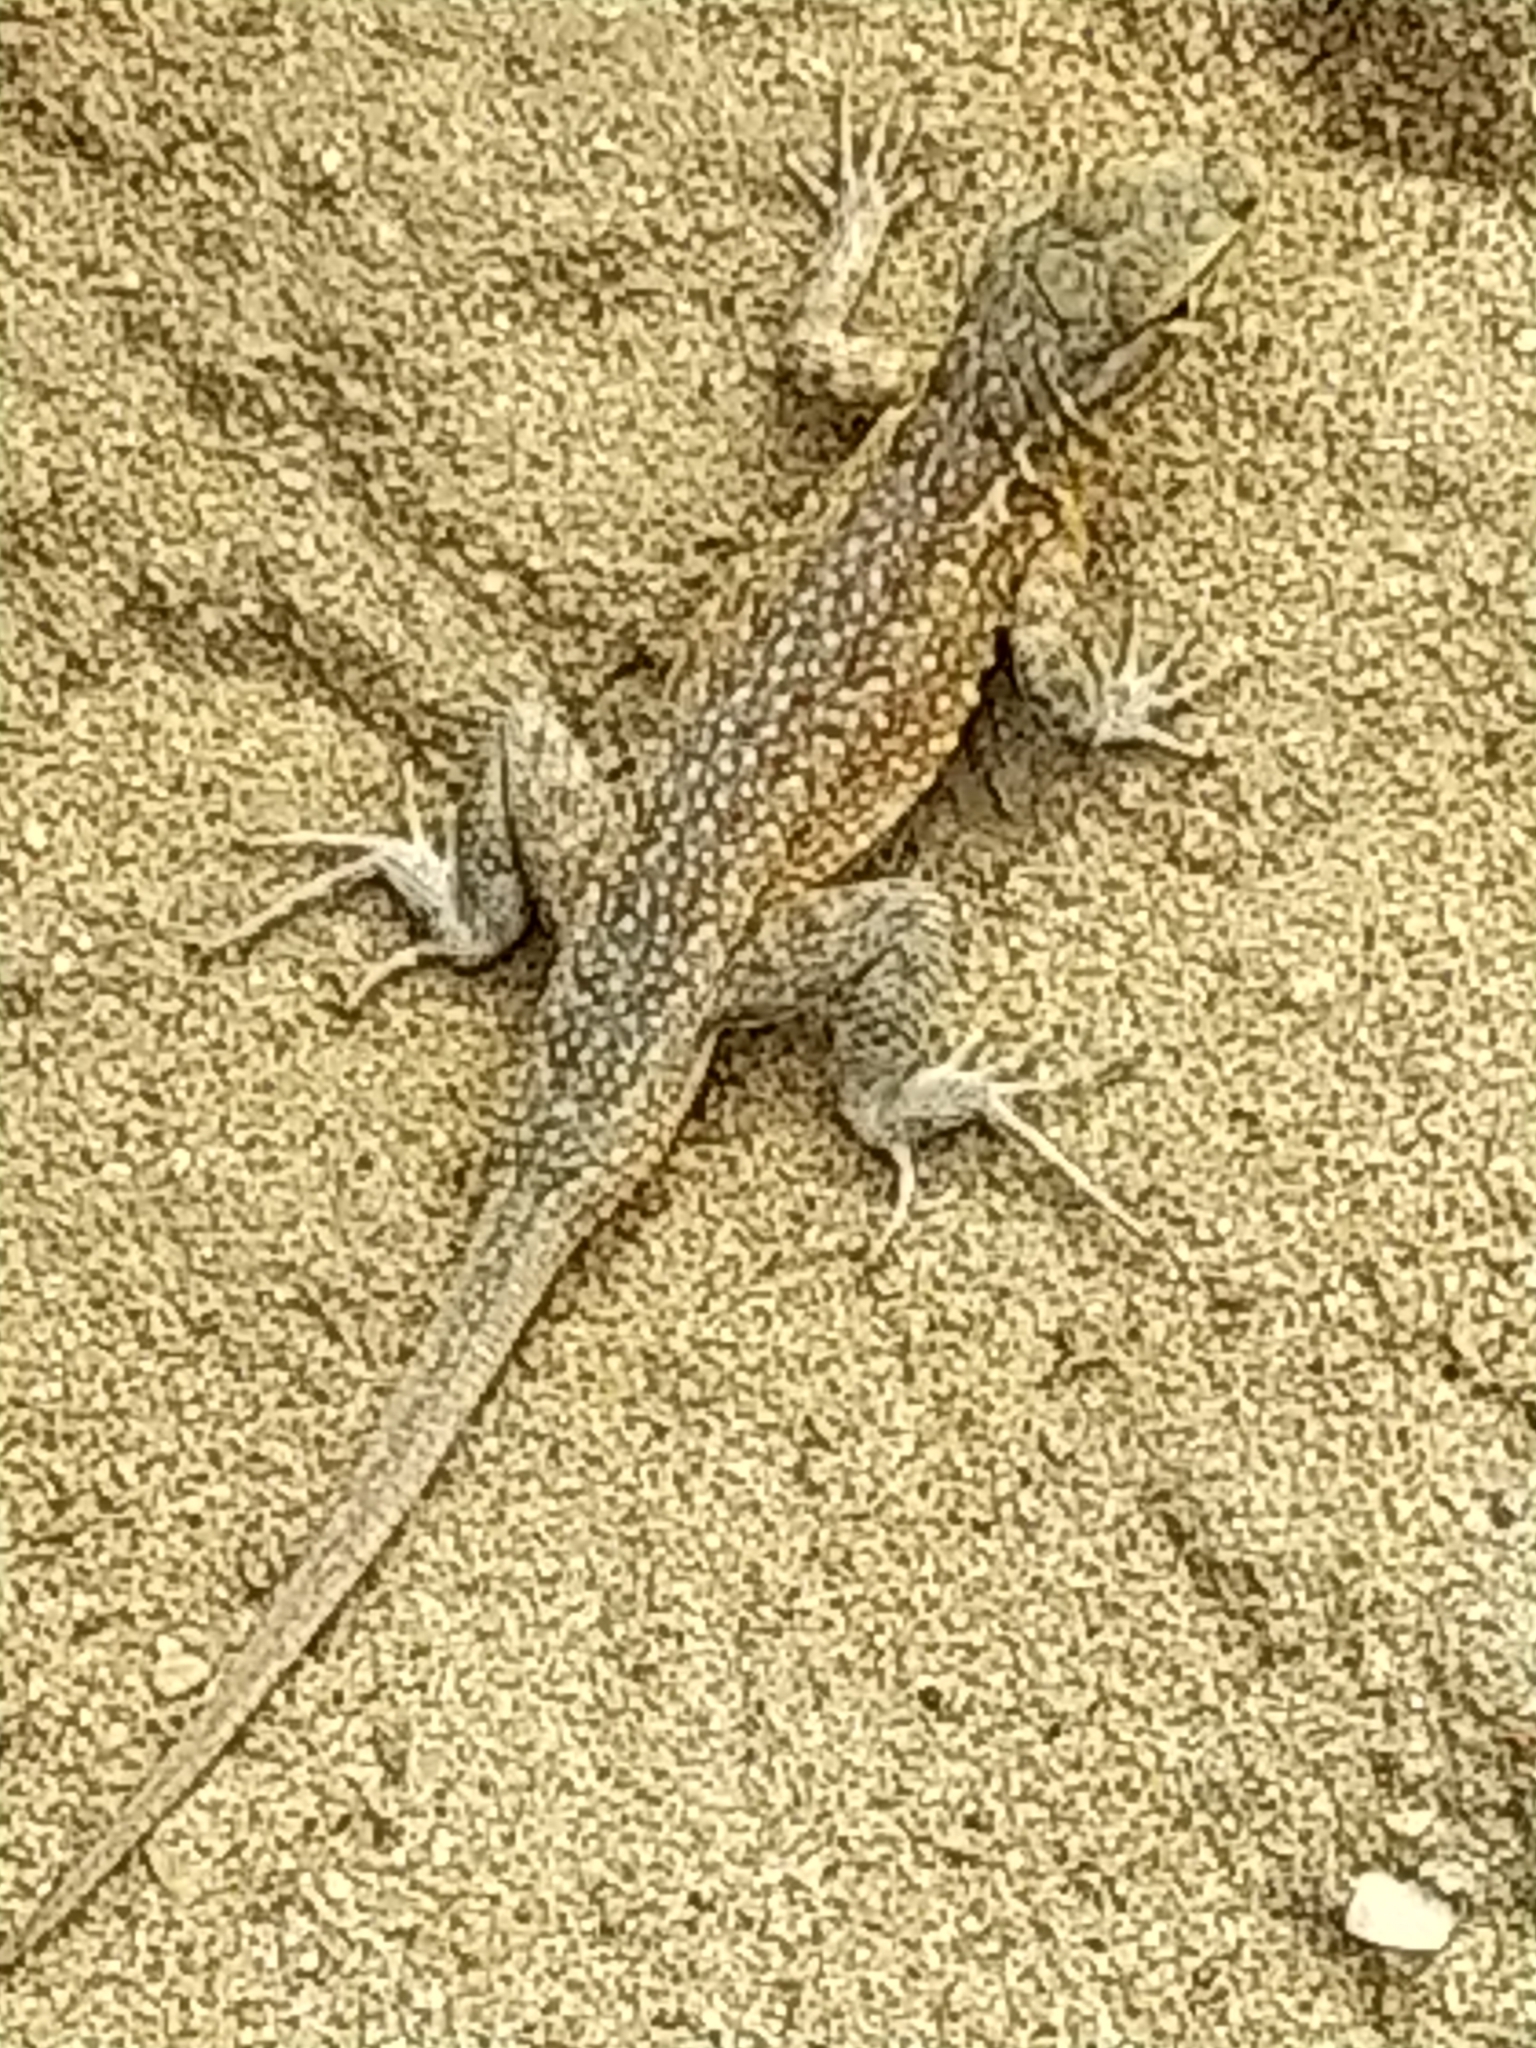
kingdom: Animalia
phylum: Chordata
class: Squamata
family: Phrynosomatidae
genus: Uta
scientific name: Uta stansburiana
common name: Side-blotched lizard
